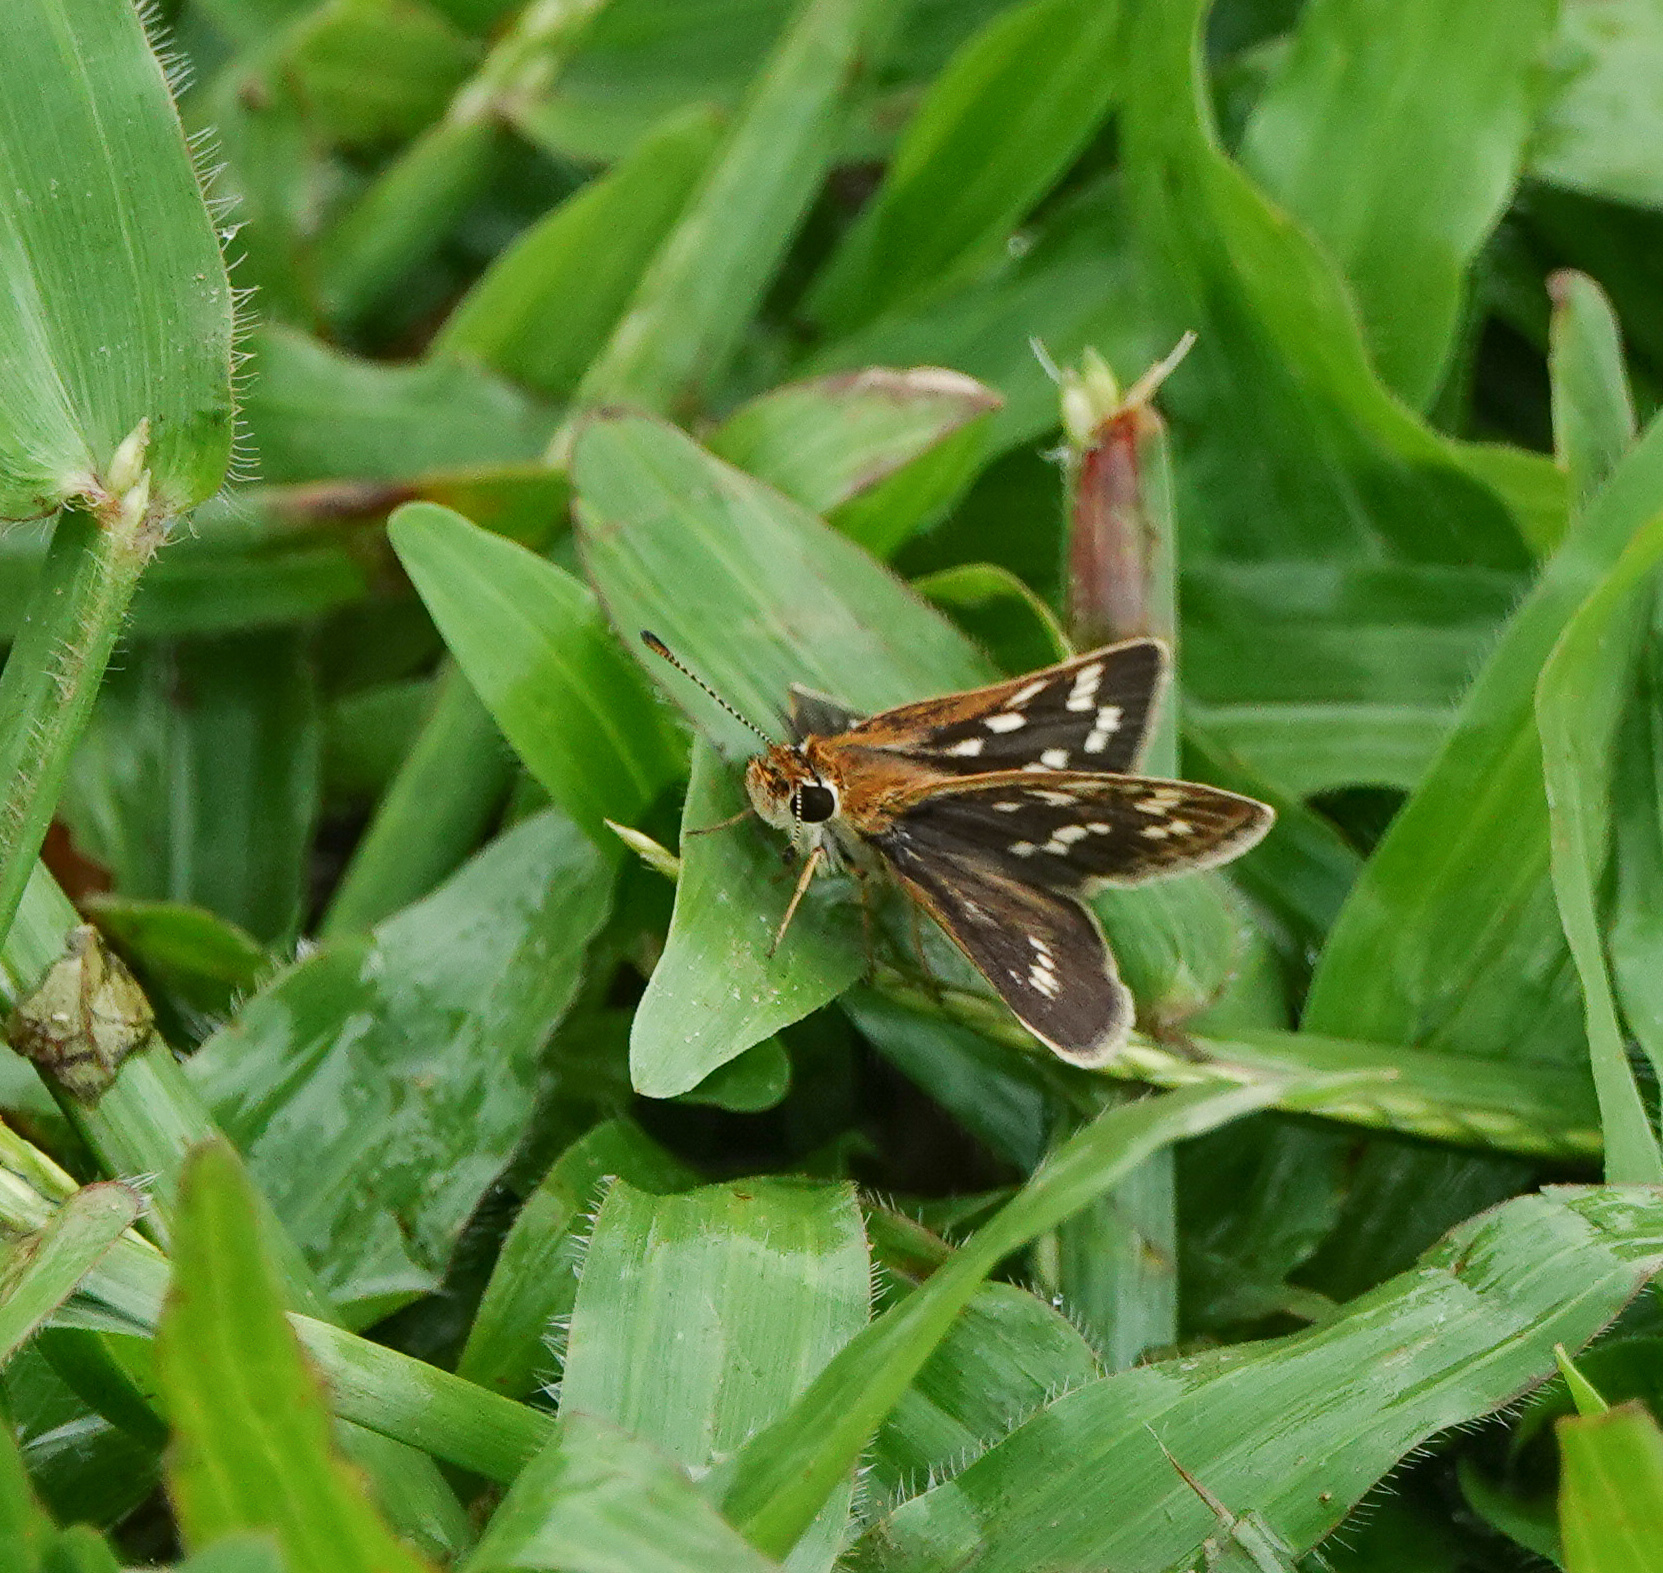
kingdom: Animalia
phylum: Arthropoda
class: Insecta
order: Lepidoptera
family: Hesperiidae
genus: Taractrocera
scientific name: Taractrocera maevius
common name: Common grass-dart
